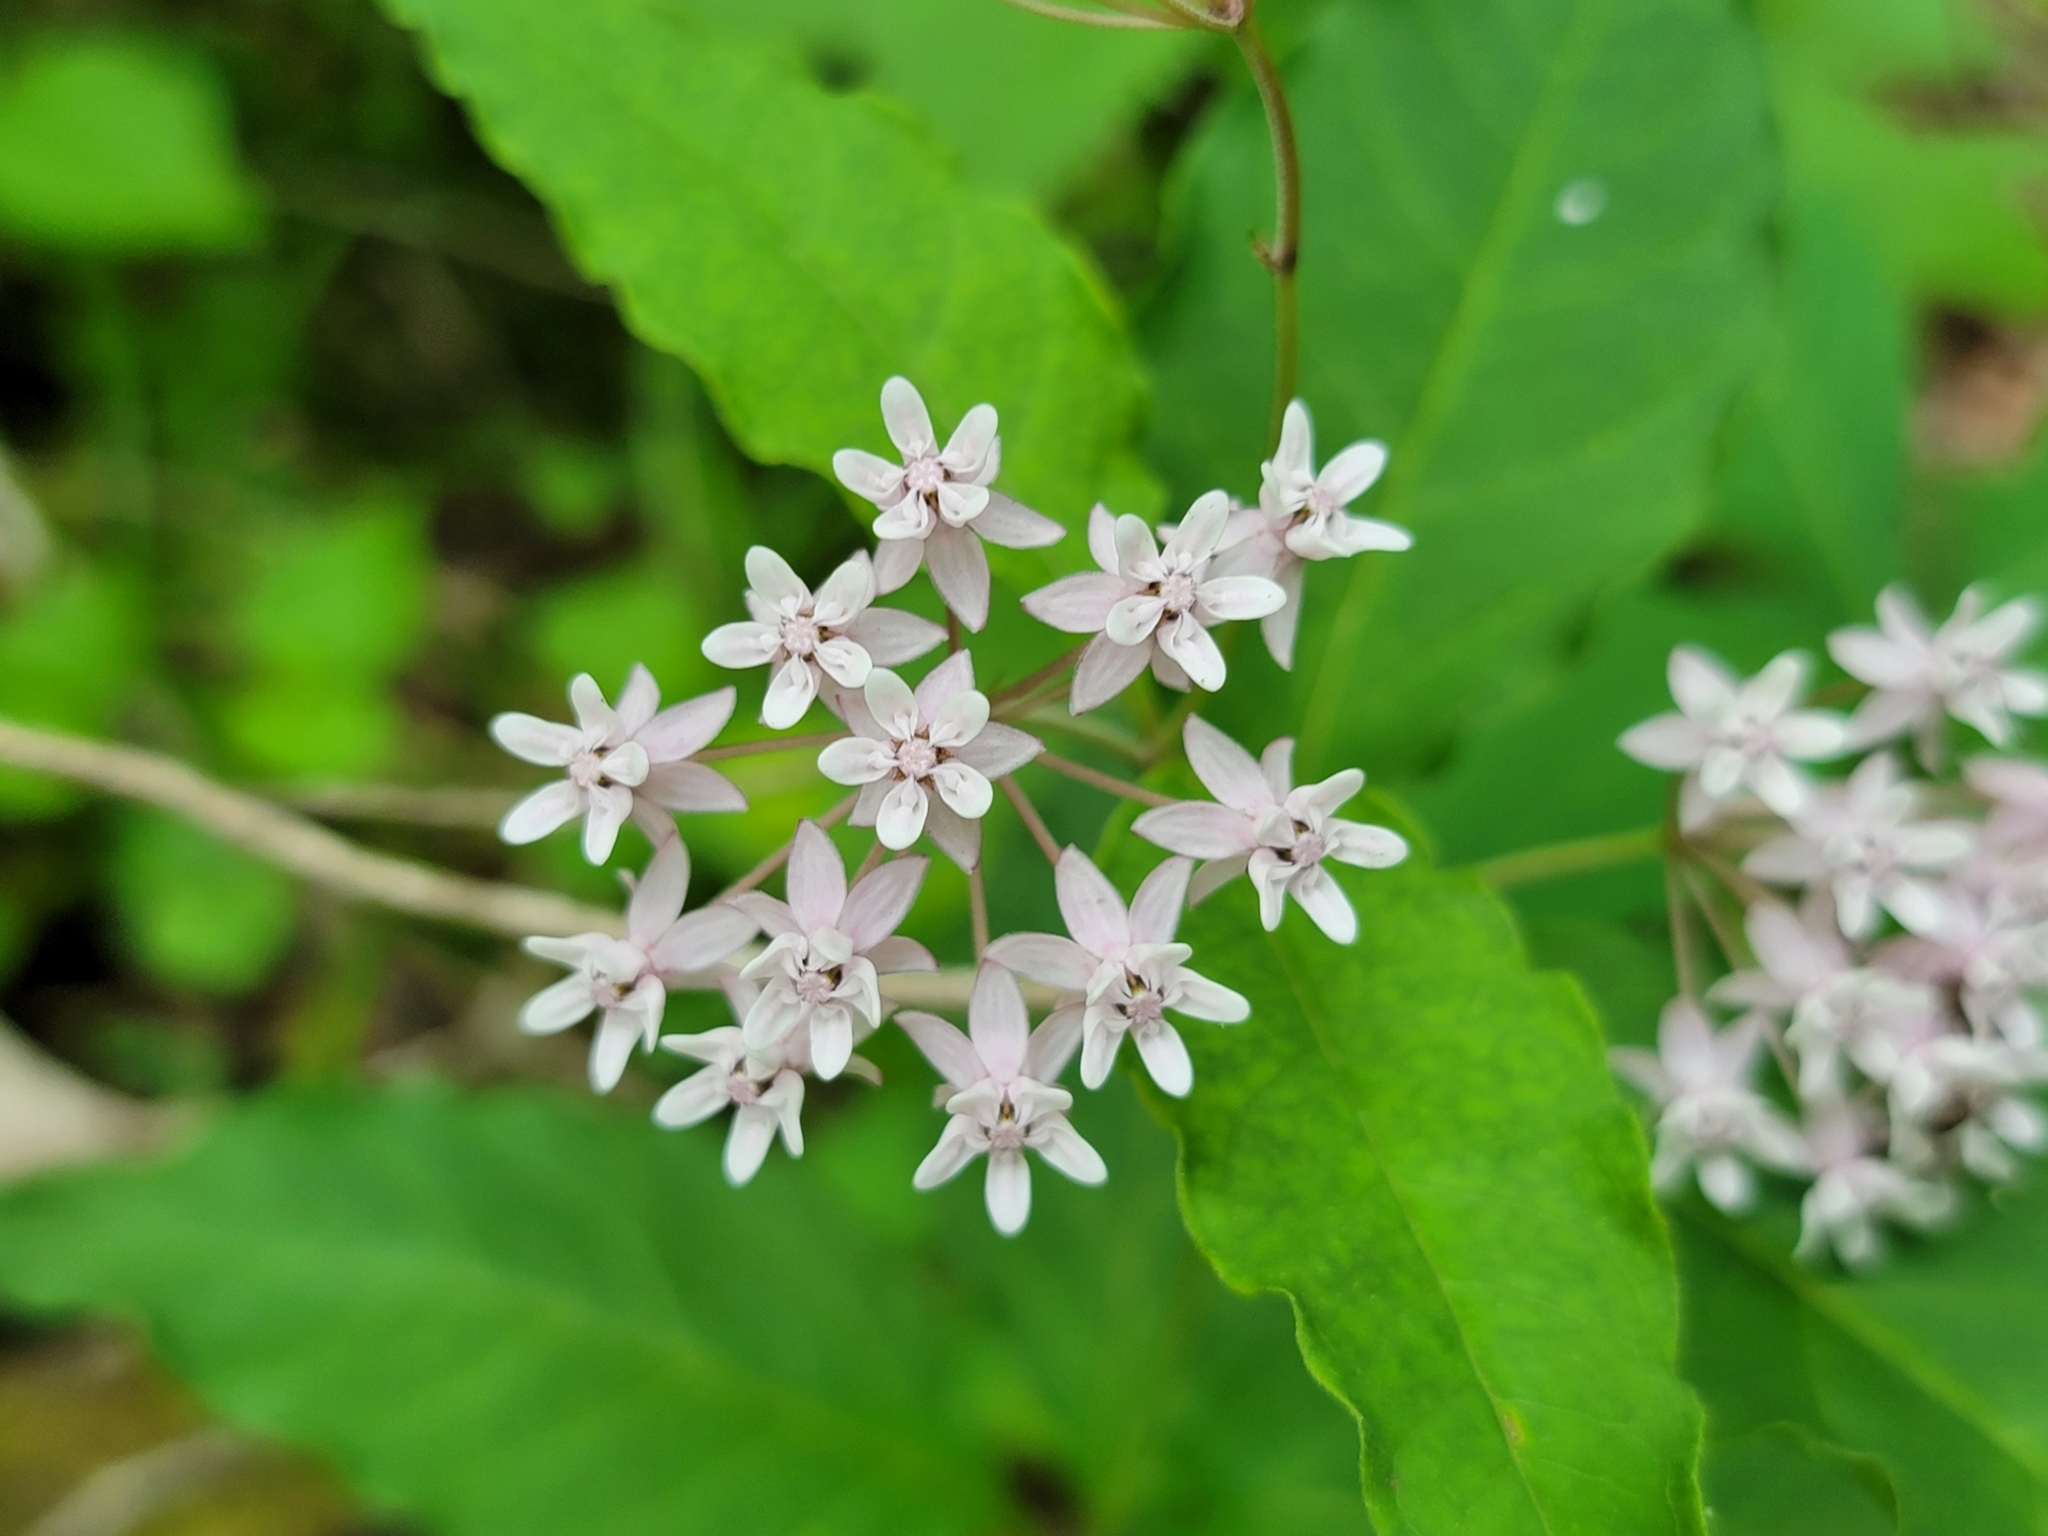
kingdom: Plantae
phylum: Tracheophyta
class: Magnoliopsida
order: Gentianales
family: Apocynaceae
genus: Asclepias
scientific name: Asclepias quadrifolia
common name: Whorled milkweed
